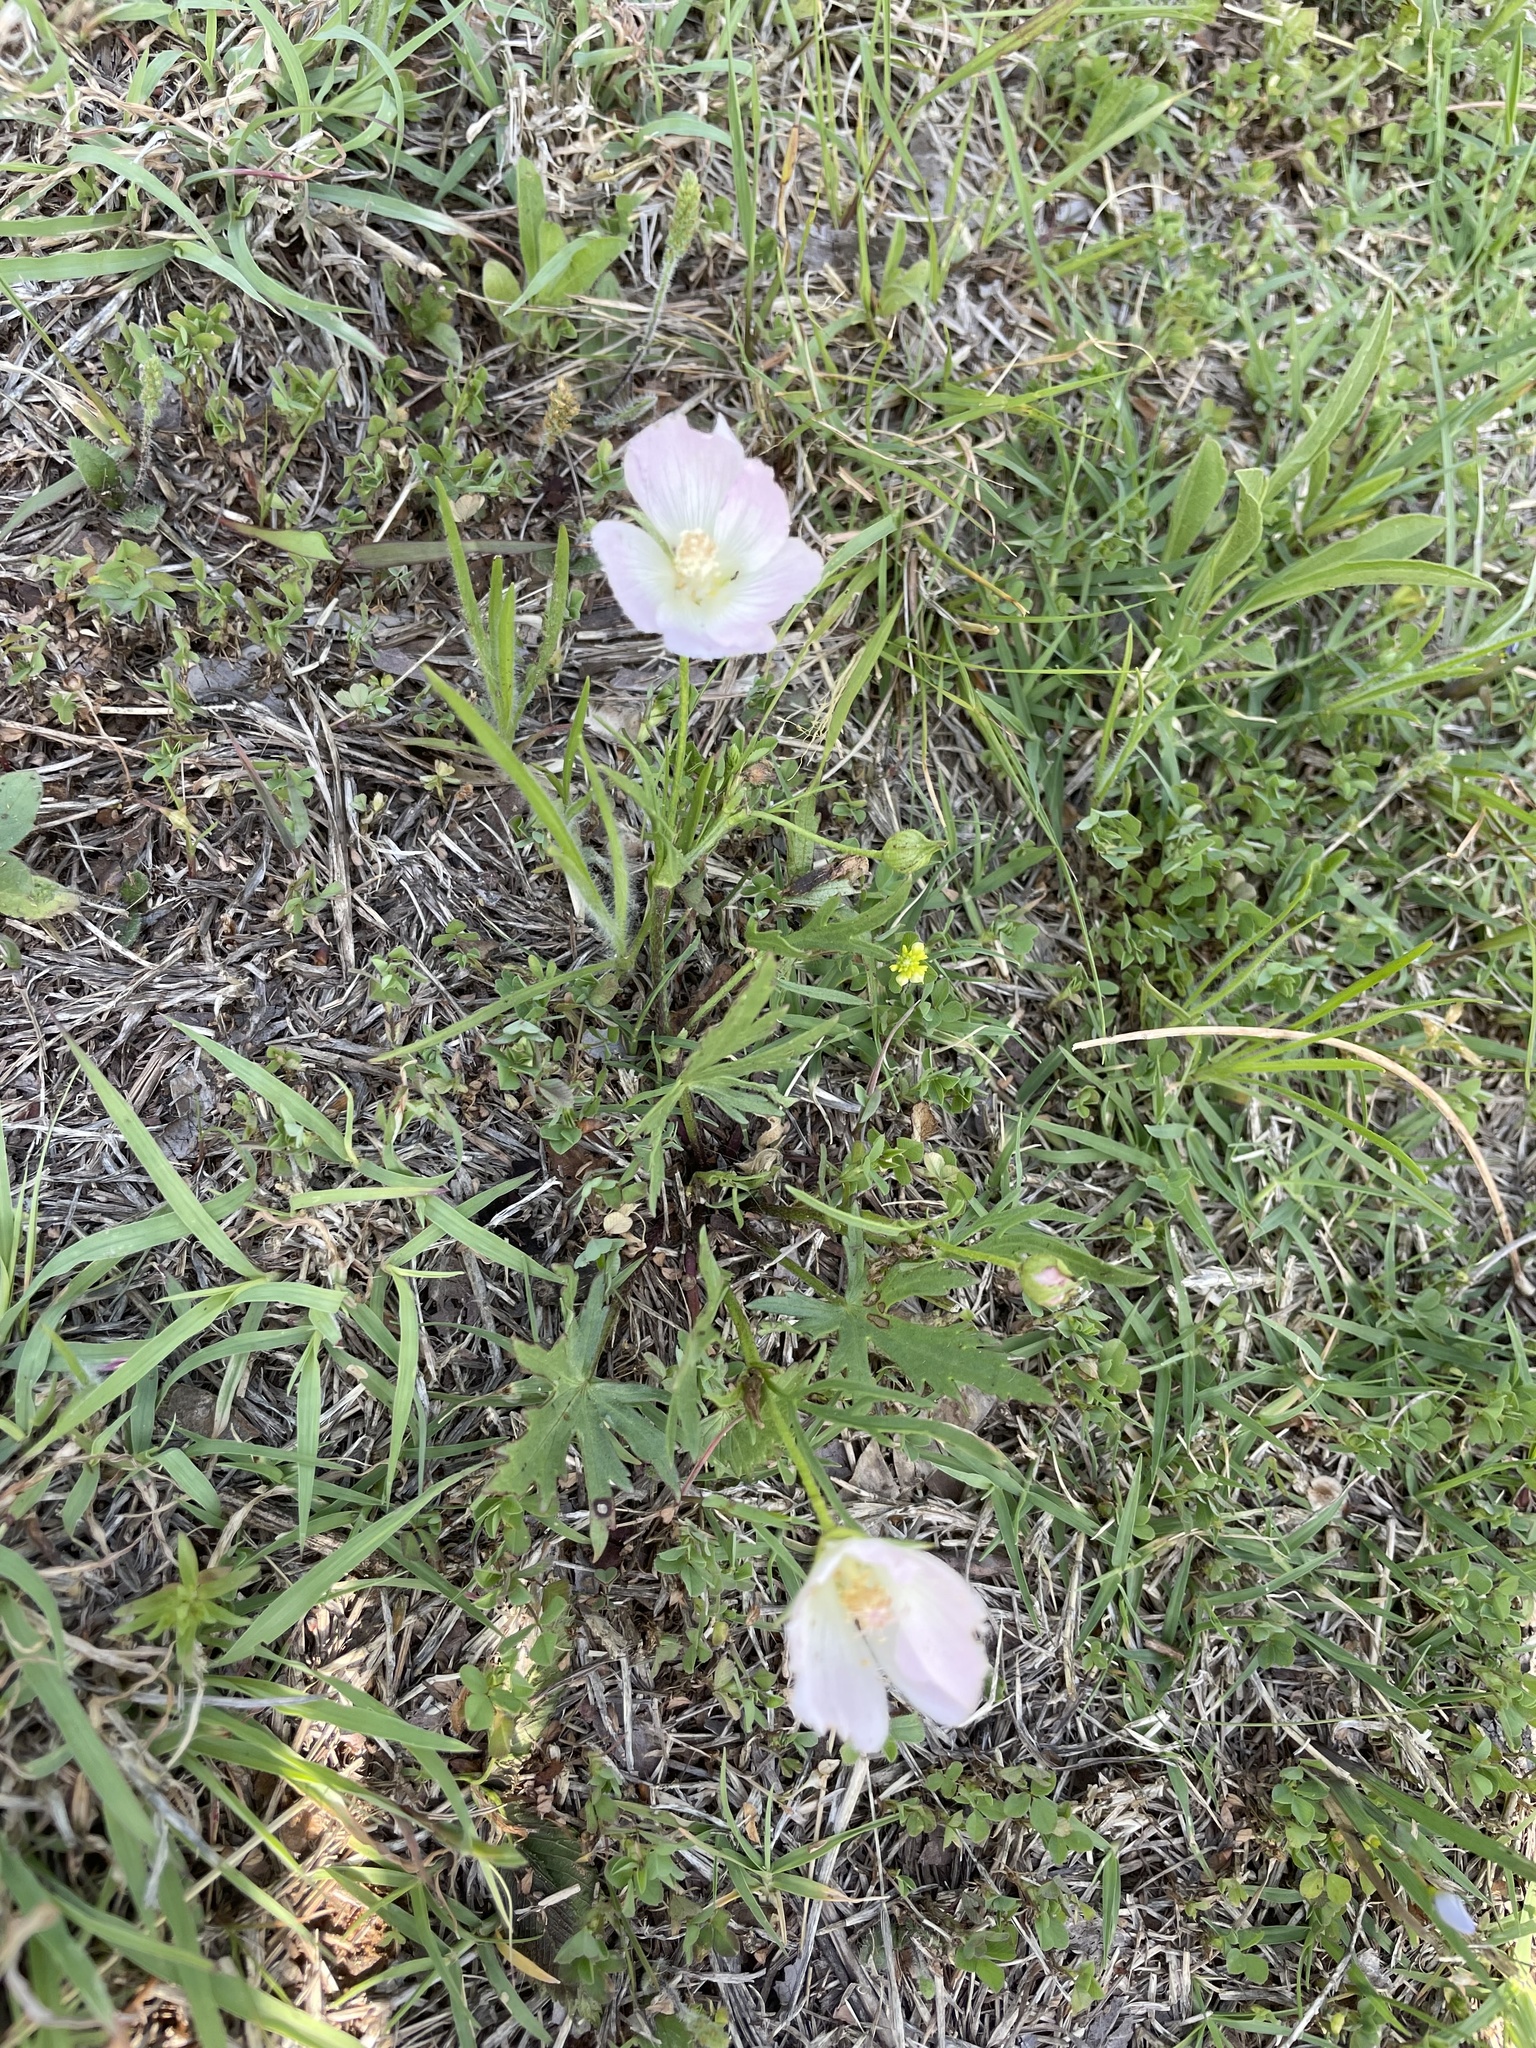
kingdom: Plantae
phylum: Tracheophyta
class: Magnoliopsida
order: Myrtales
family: Onagraceae
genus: Oenothera
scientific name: Oenothera speciosa
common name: White evening-primrose
